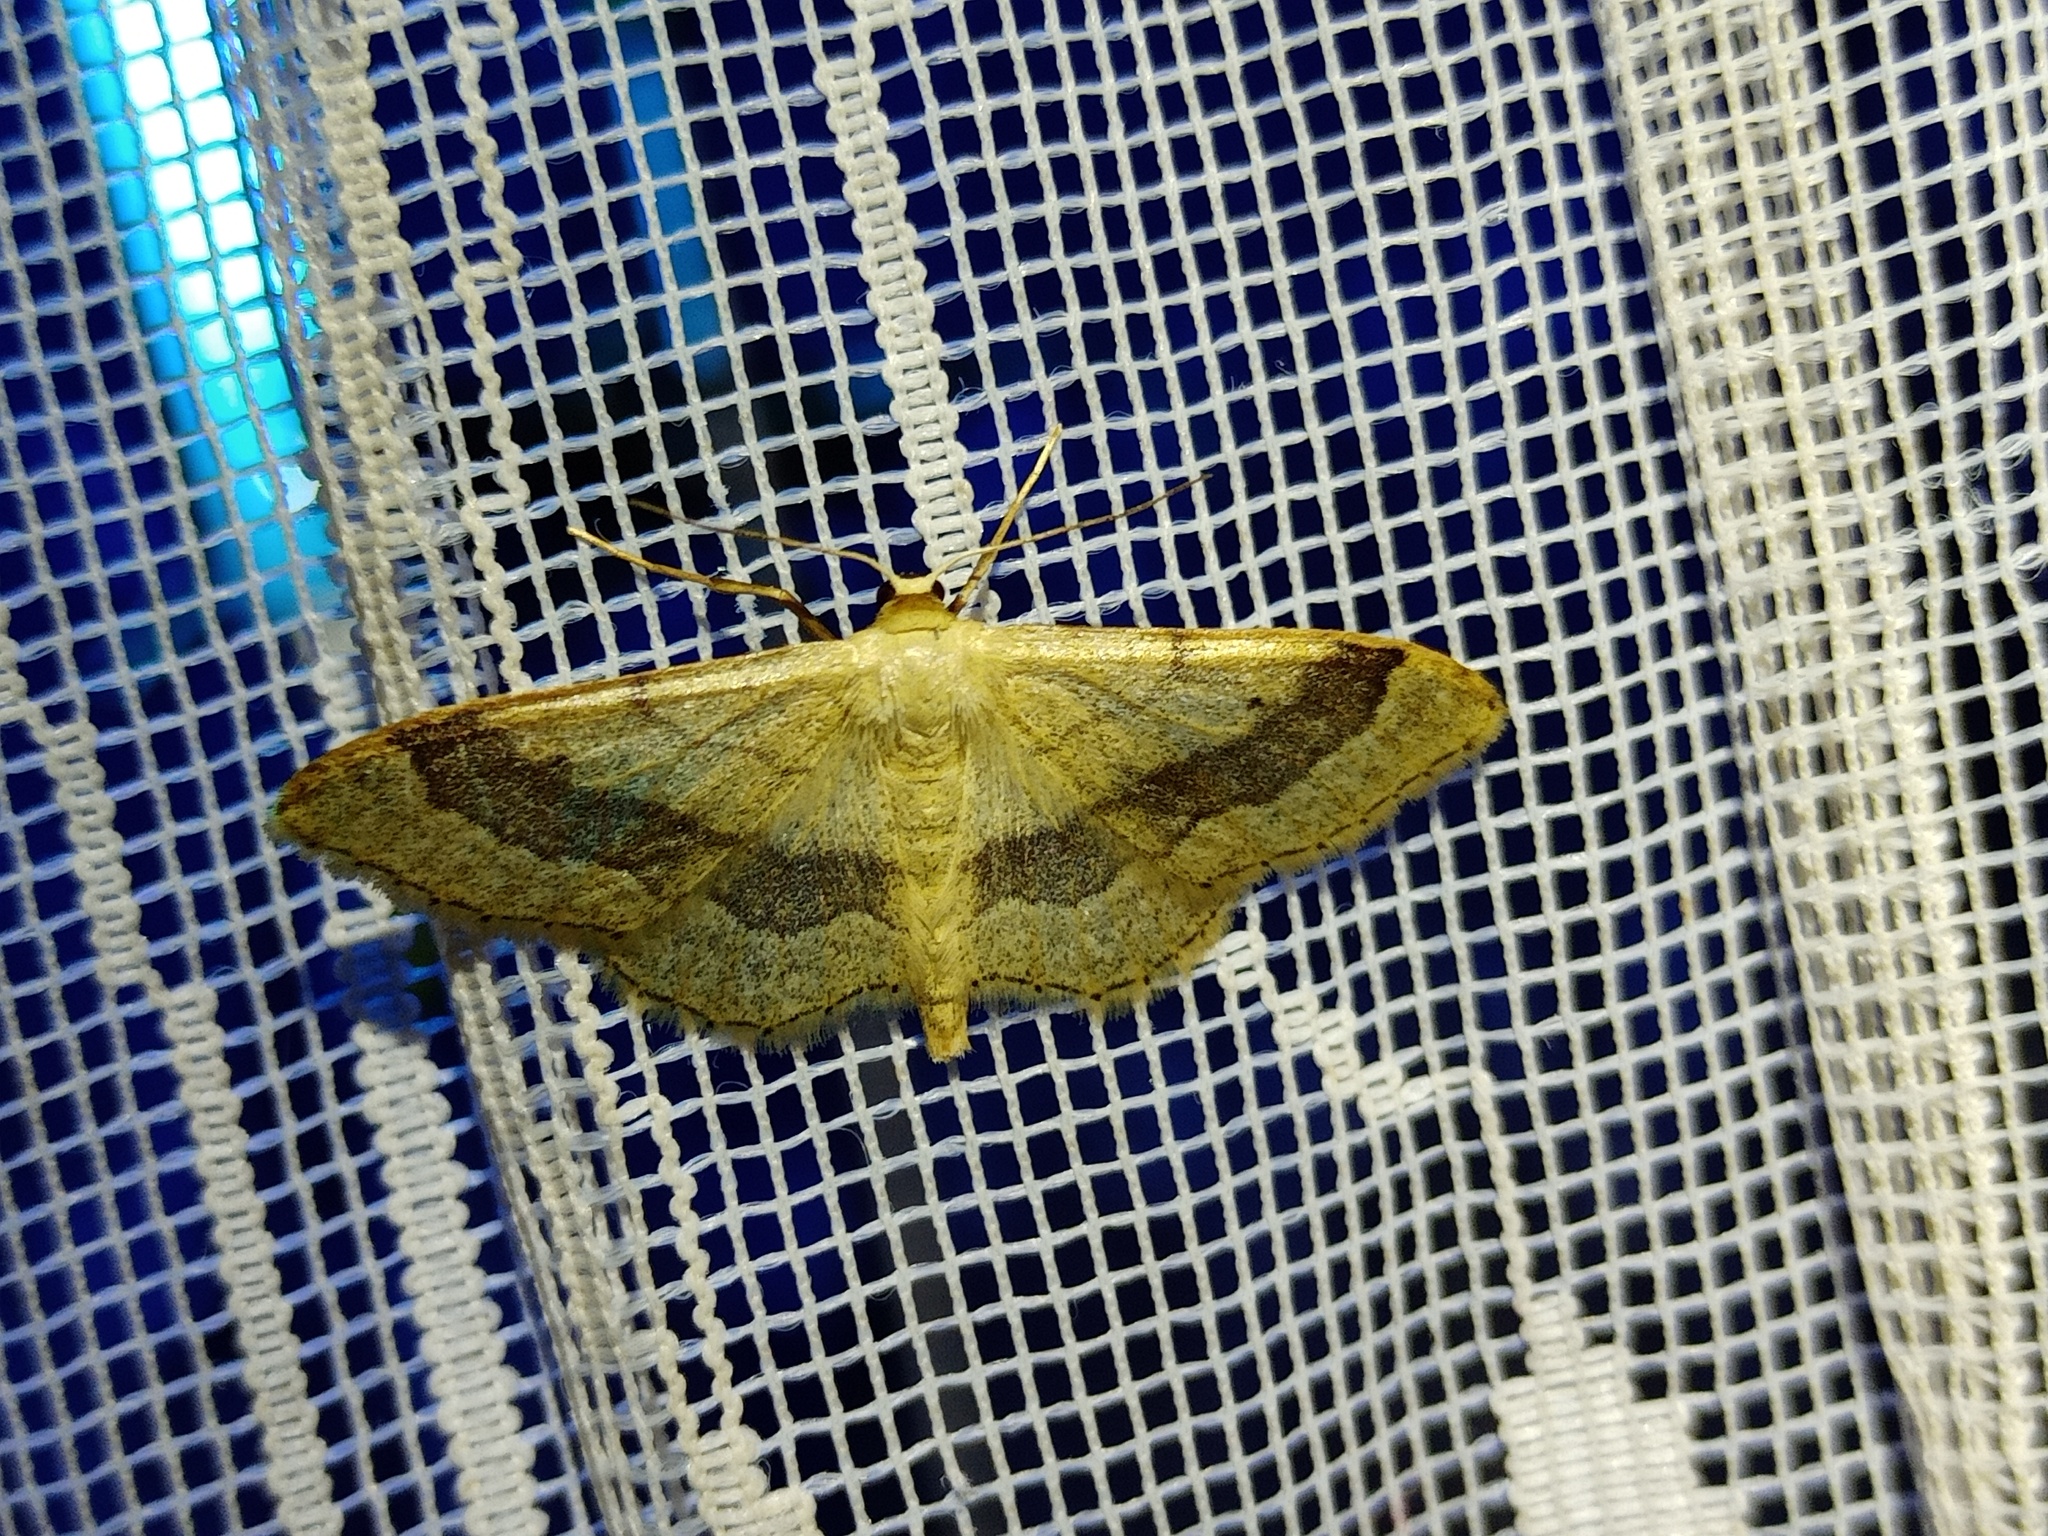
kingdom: Animalia
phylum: Arthropoda
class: Insecta
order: Lepidoptera
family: Geometridae
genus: Idaea
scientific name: Idaea aversata
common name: Riband wave
